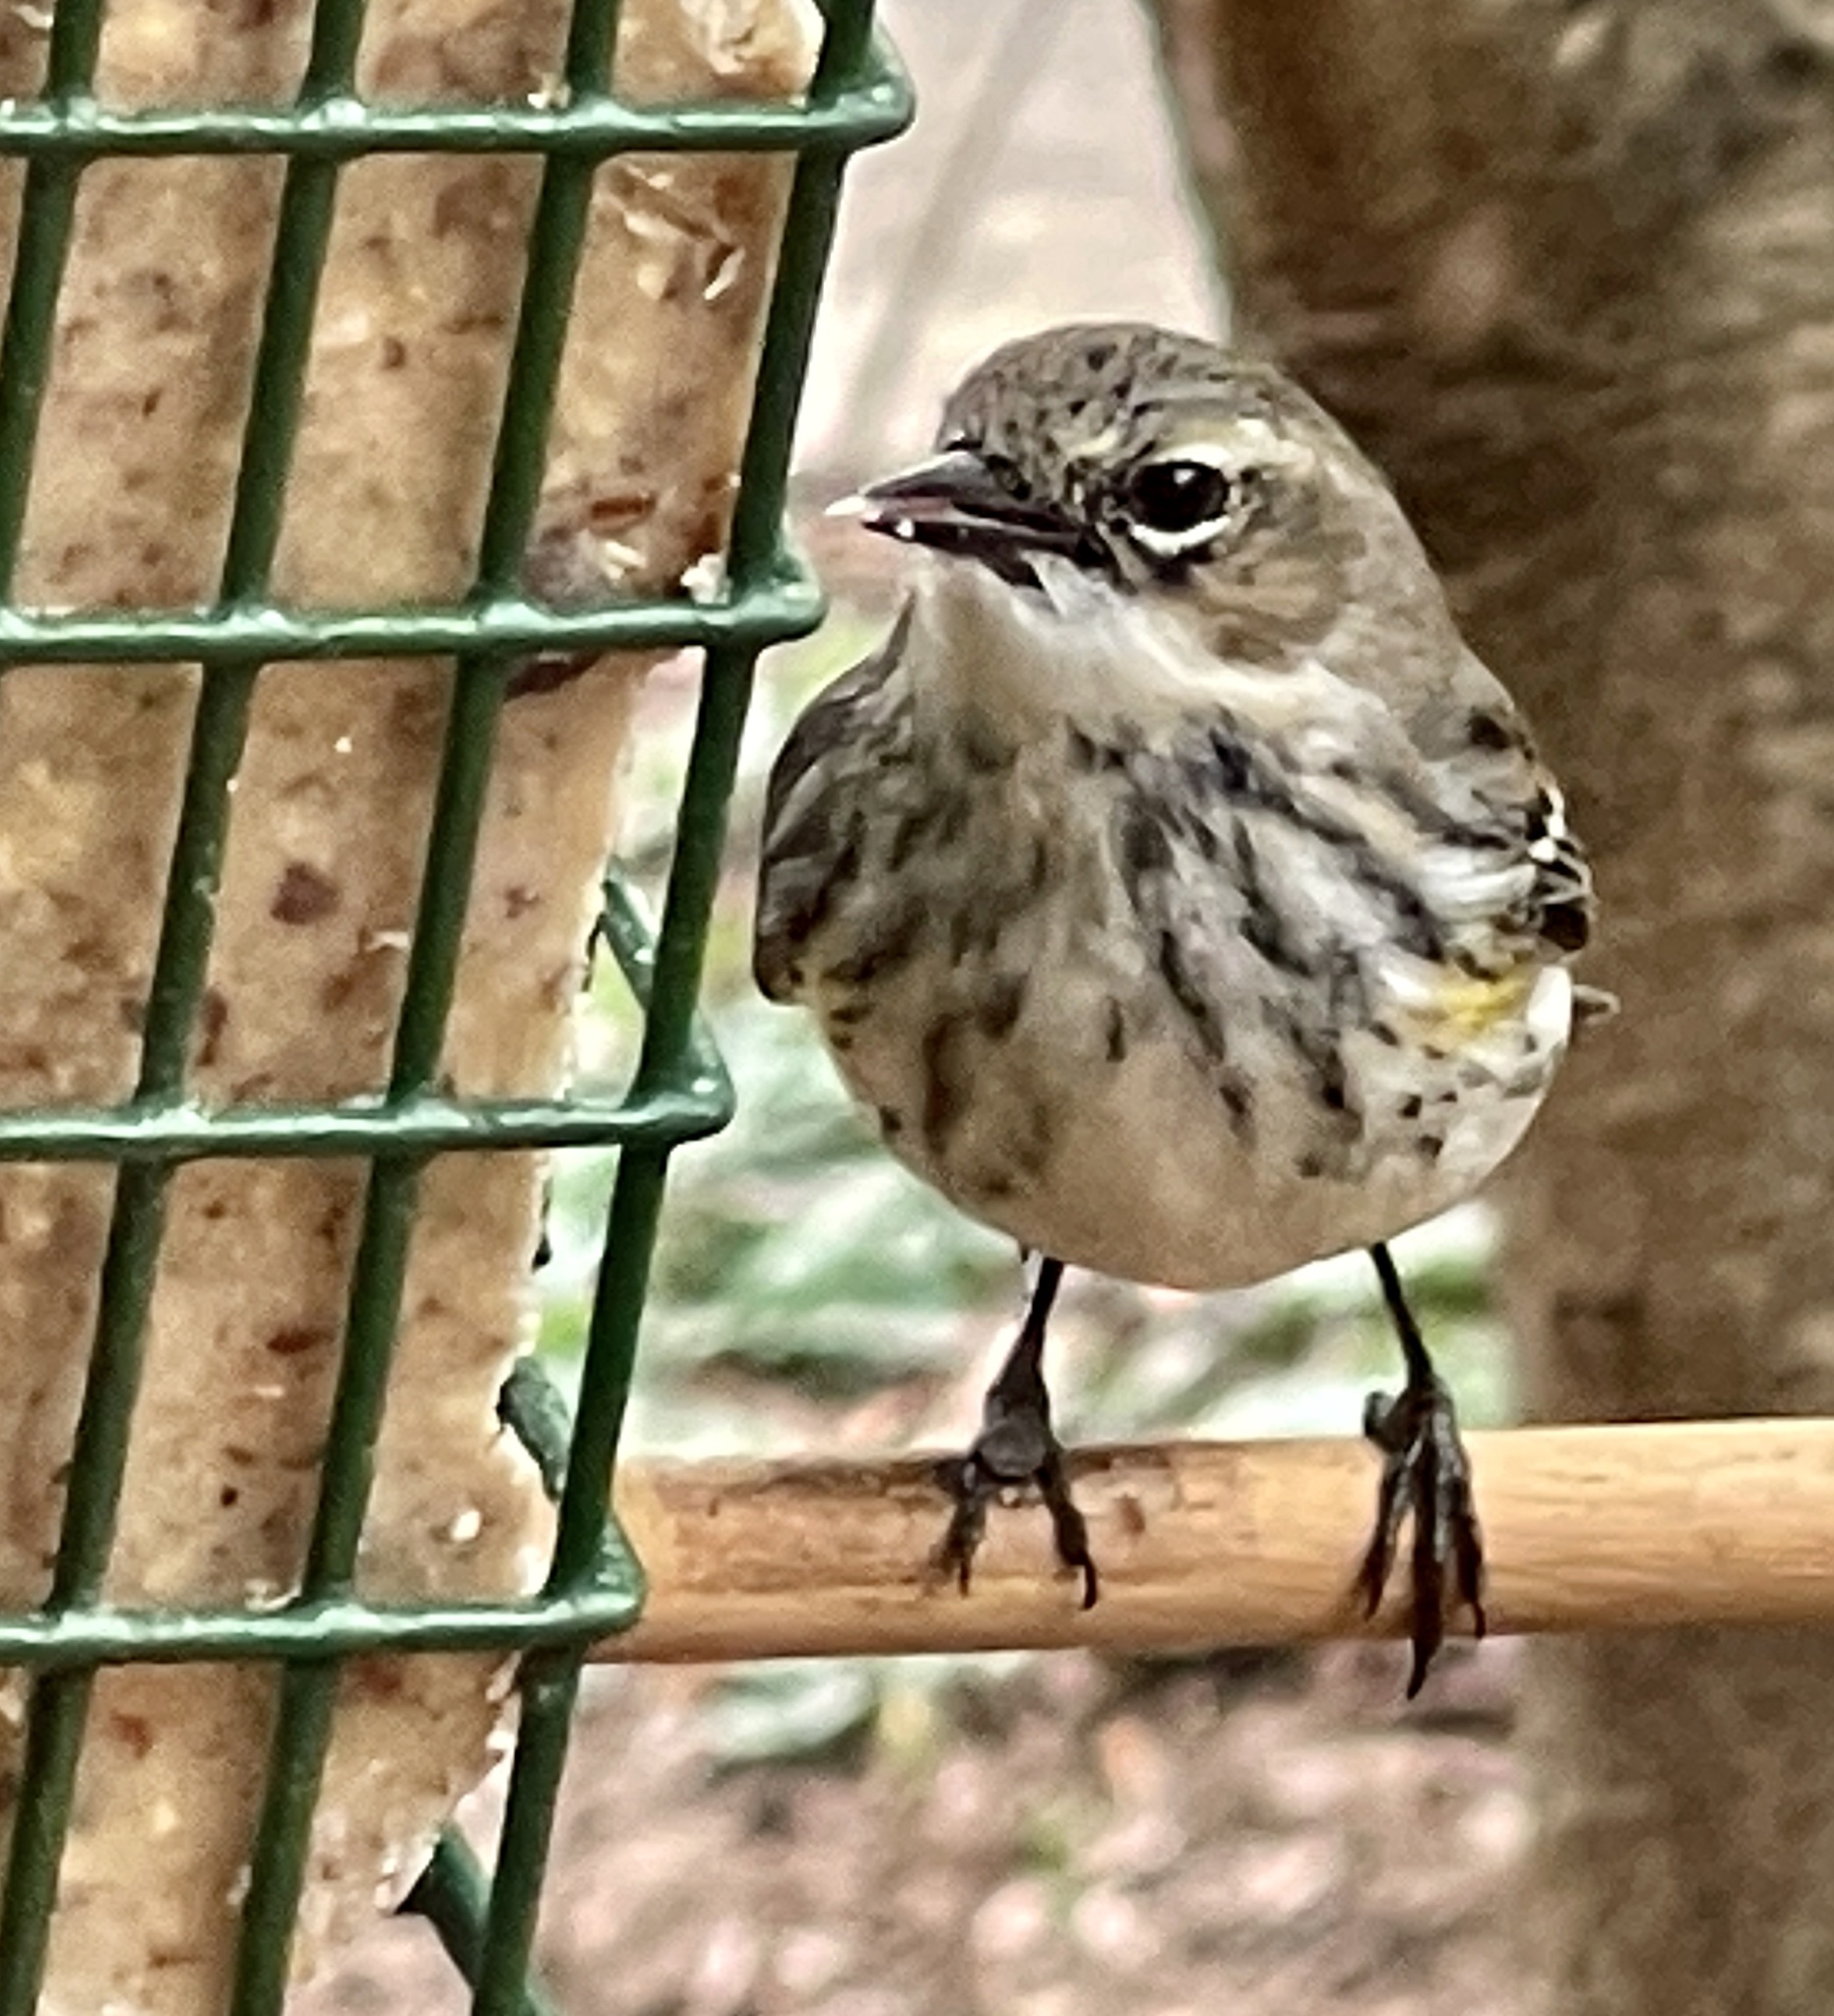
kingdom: Animalia
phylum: Chordata
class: Aves
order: Passeriformes
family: Parulidae
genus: Setophaga
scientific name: Setophaga coronata
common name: Myrtle warbler
